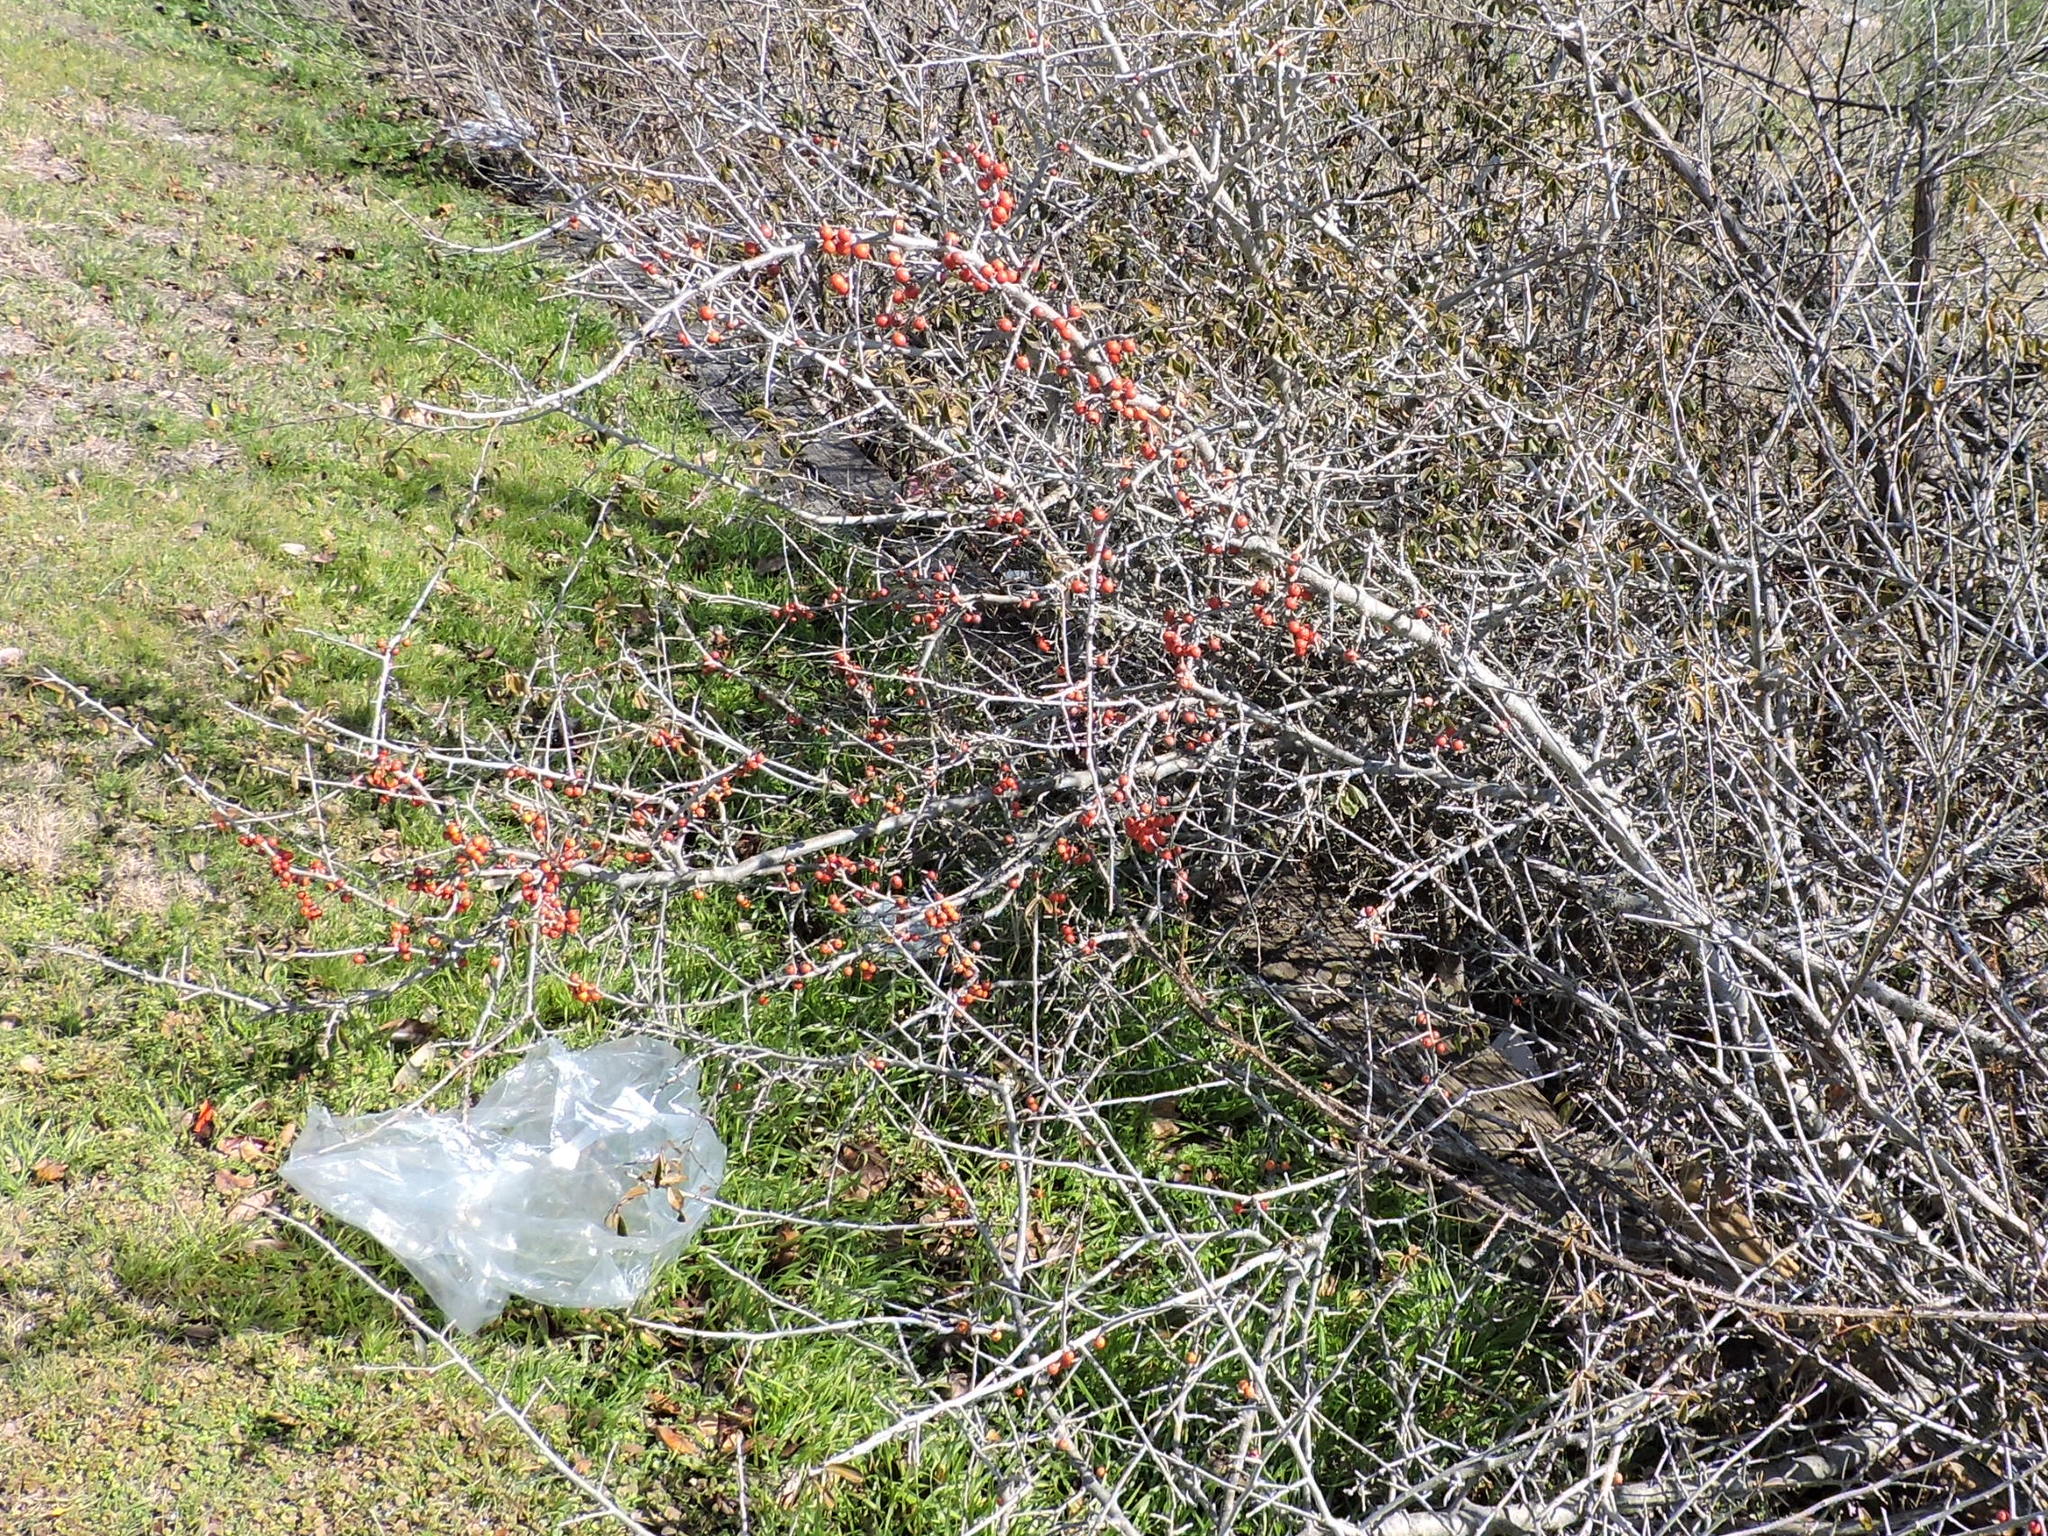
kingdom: Plantae
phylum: Tracheophyta
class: Magnoliopsida
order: Aquifoliales
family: Aquifoliaceae
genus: Ilex
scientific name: Ilex decidua
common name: Possum-haw
